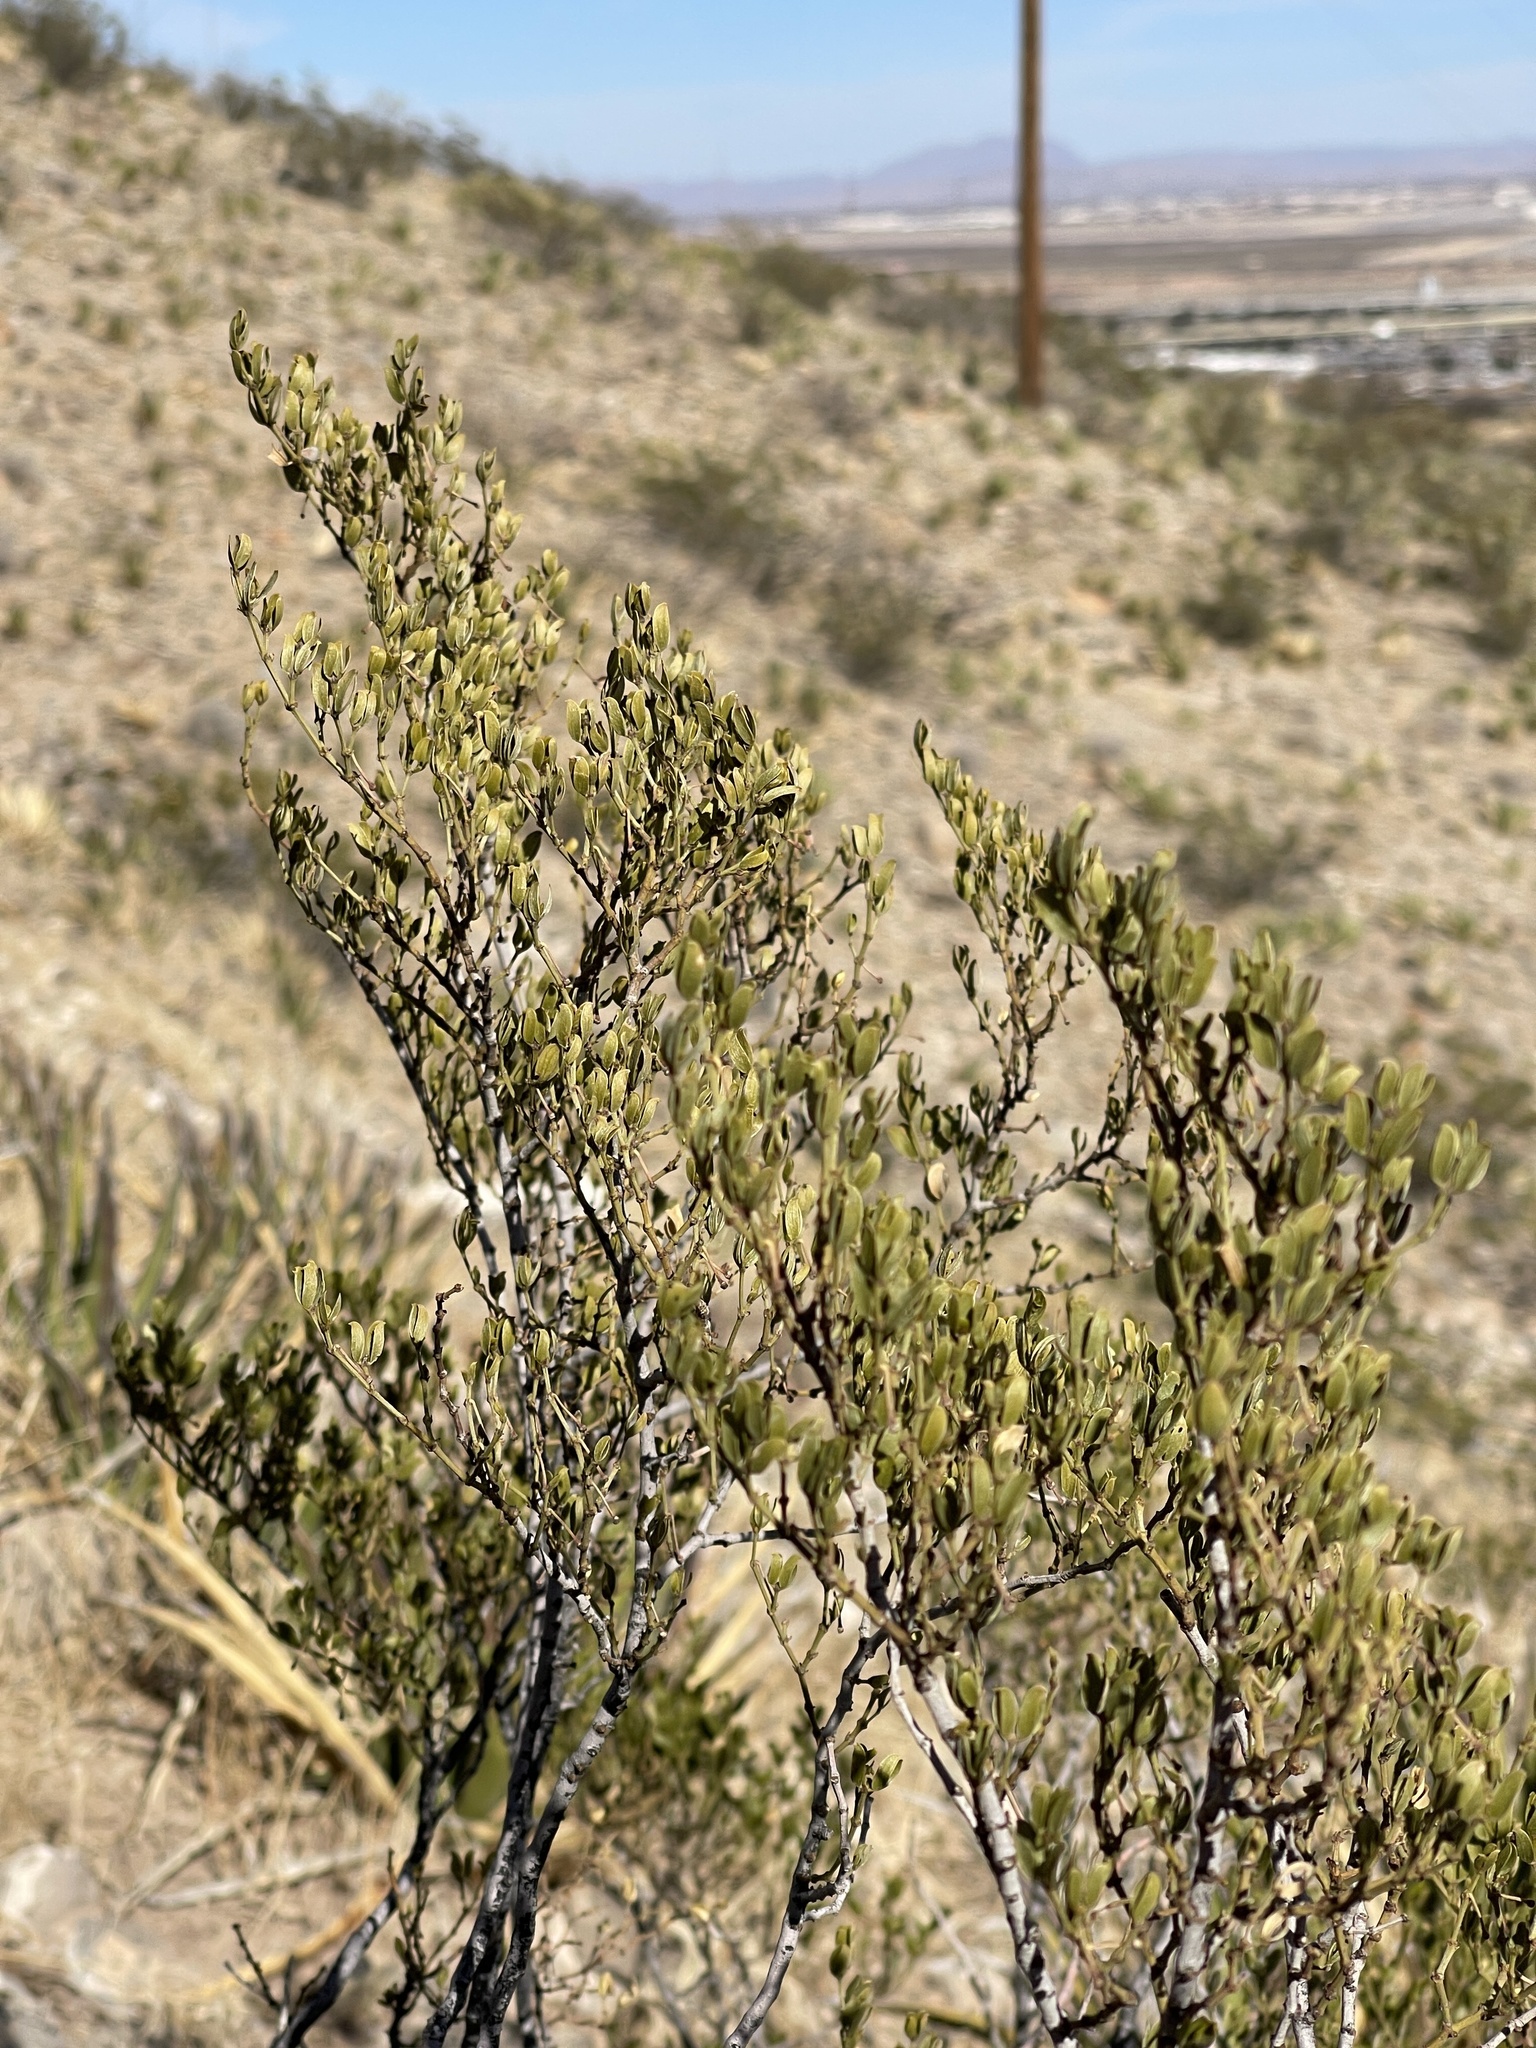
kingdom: Plantae
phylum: Tracheophyta
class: Magnoliopsida
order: Zygophyllales
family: Zygophyllaceae
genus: Larrea
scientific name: Larrea tridentata
